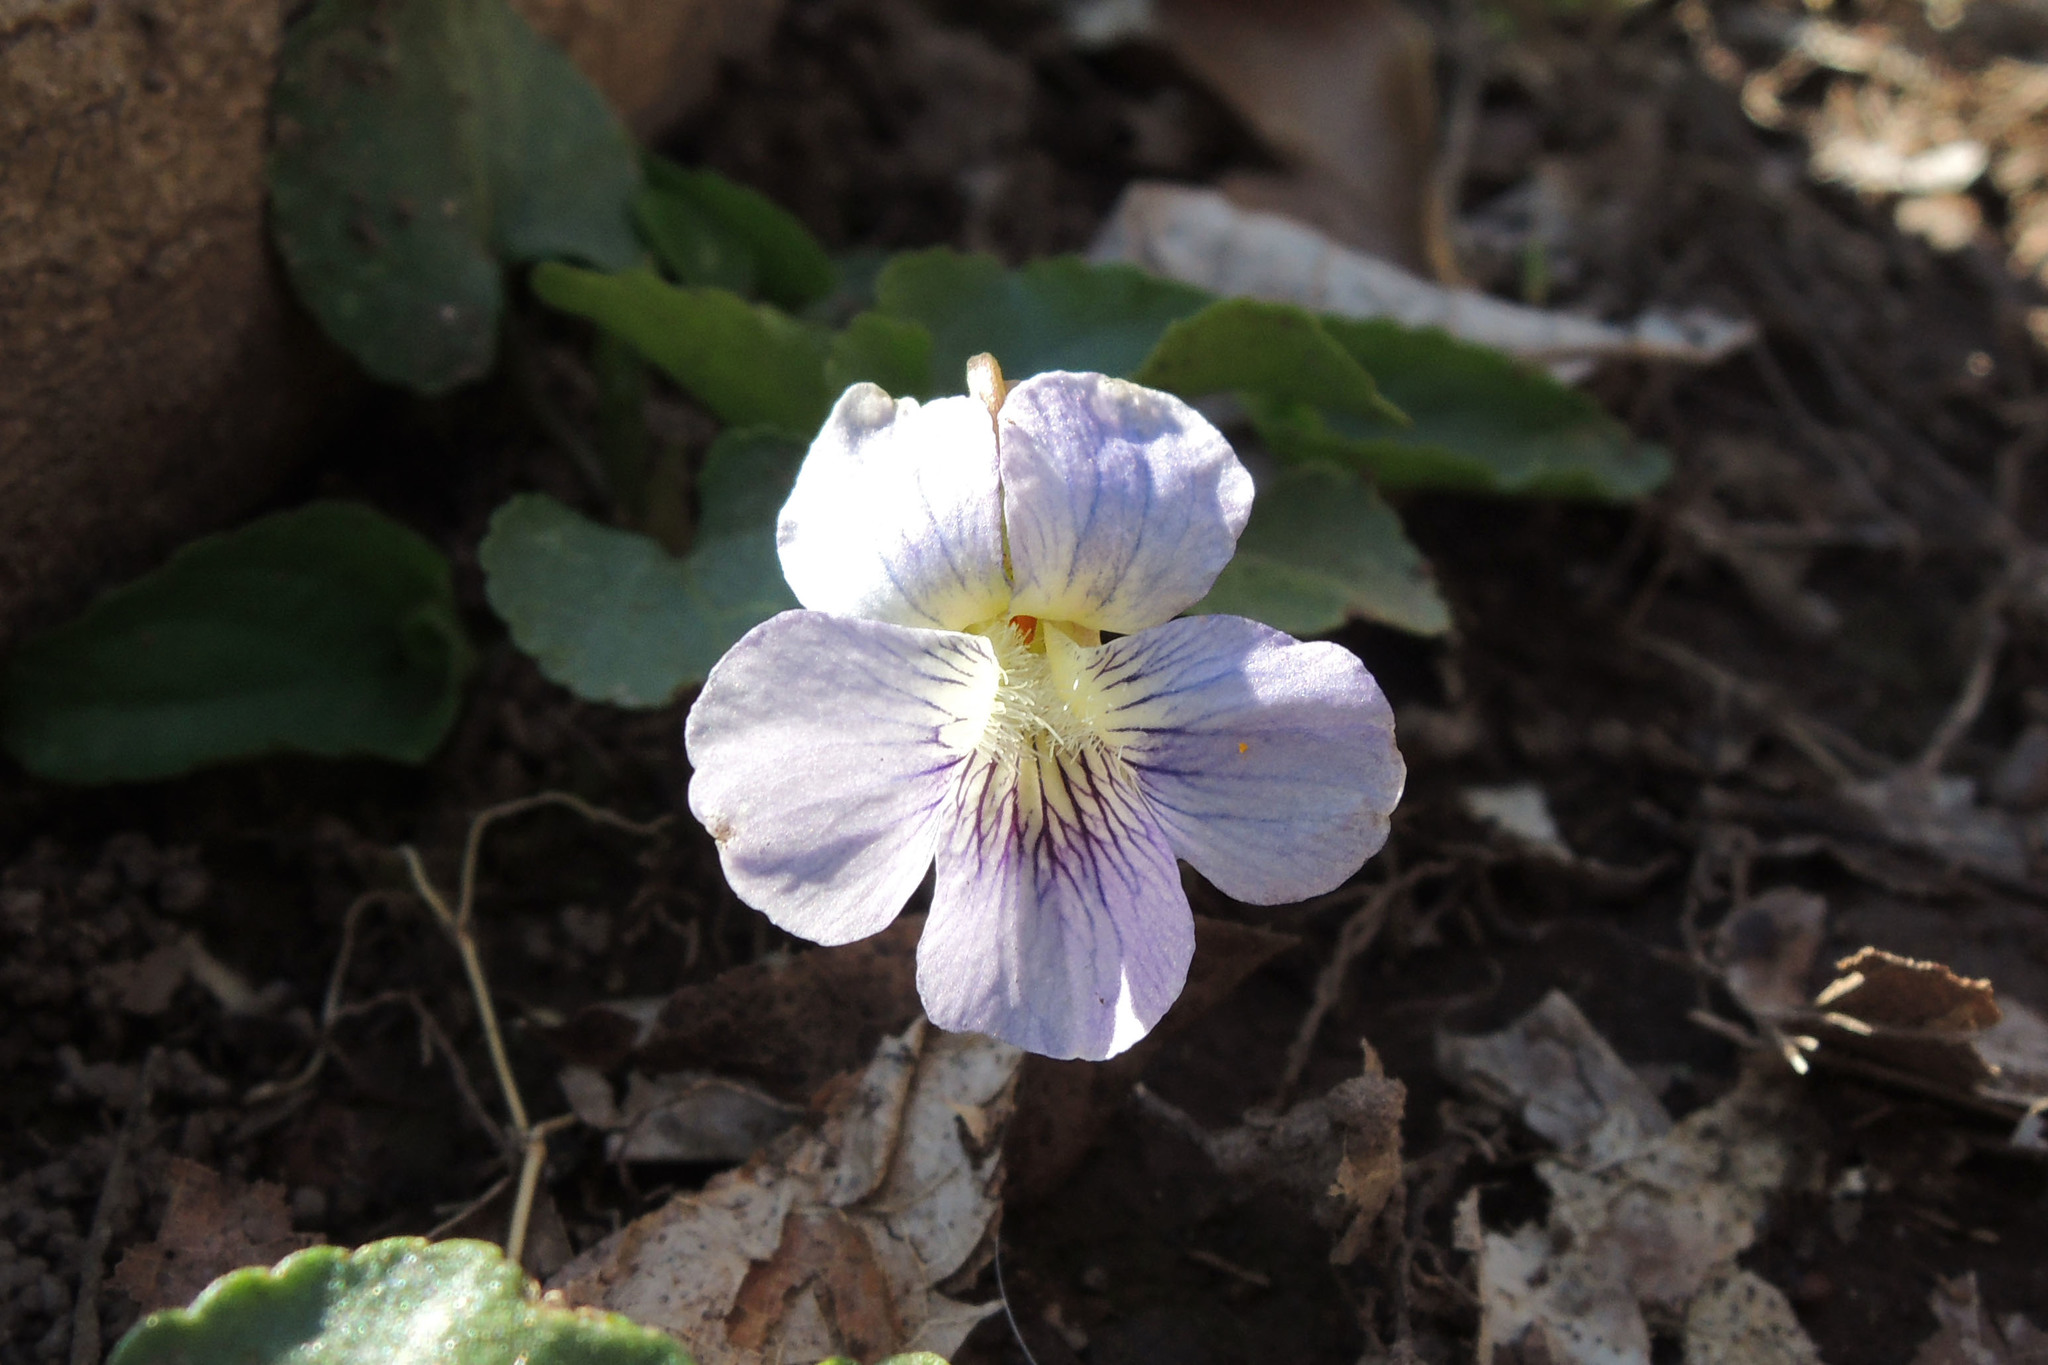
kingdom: Plantae
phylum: Tracheophyta
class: Magnoliopsida
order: Malpighiales
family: Violaceae
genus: Viola
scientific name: Viola sororia
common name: Dooryard violet
